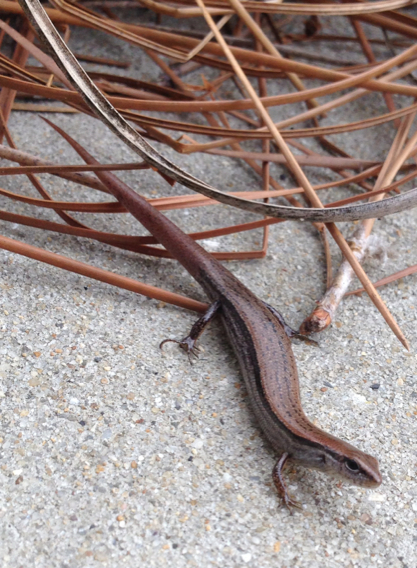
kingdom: Animalia
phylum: Chordata
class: Squamata
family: Scincidae
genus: Scincella
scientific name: Scincella lateralis
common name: Ground skink
